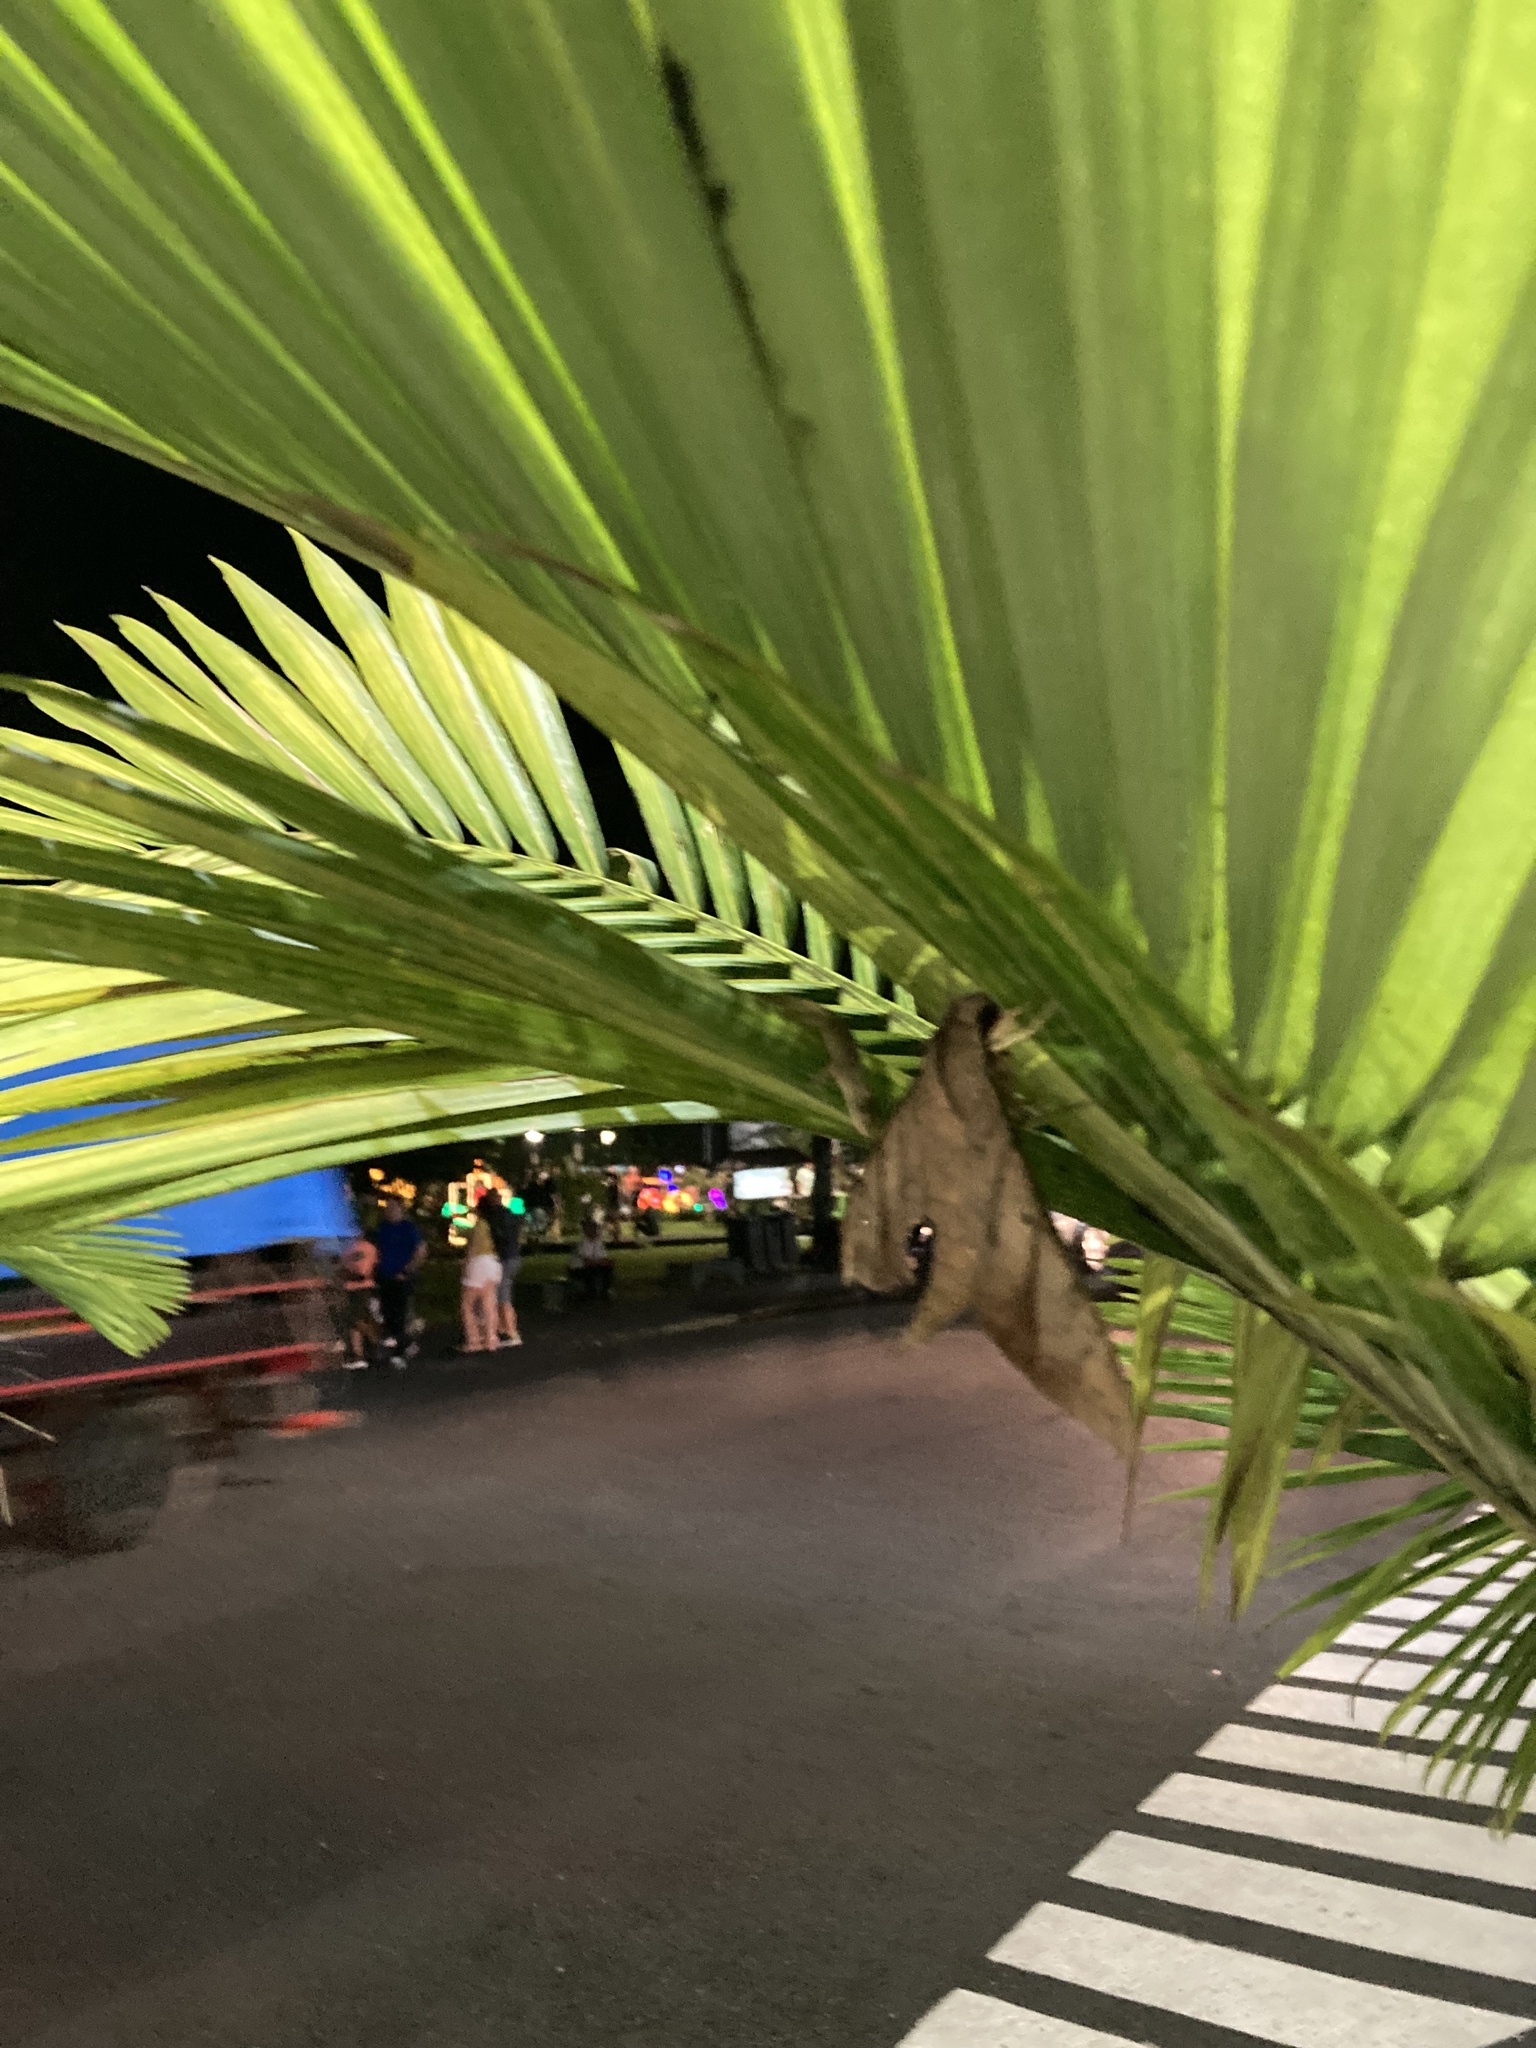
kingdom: Animalia
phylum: Arthropoda
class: Insecta
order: Lepidoptera
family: Sphingidae
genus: Pachylia
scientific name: Pachylia darceta
